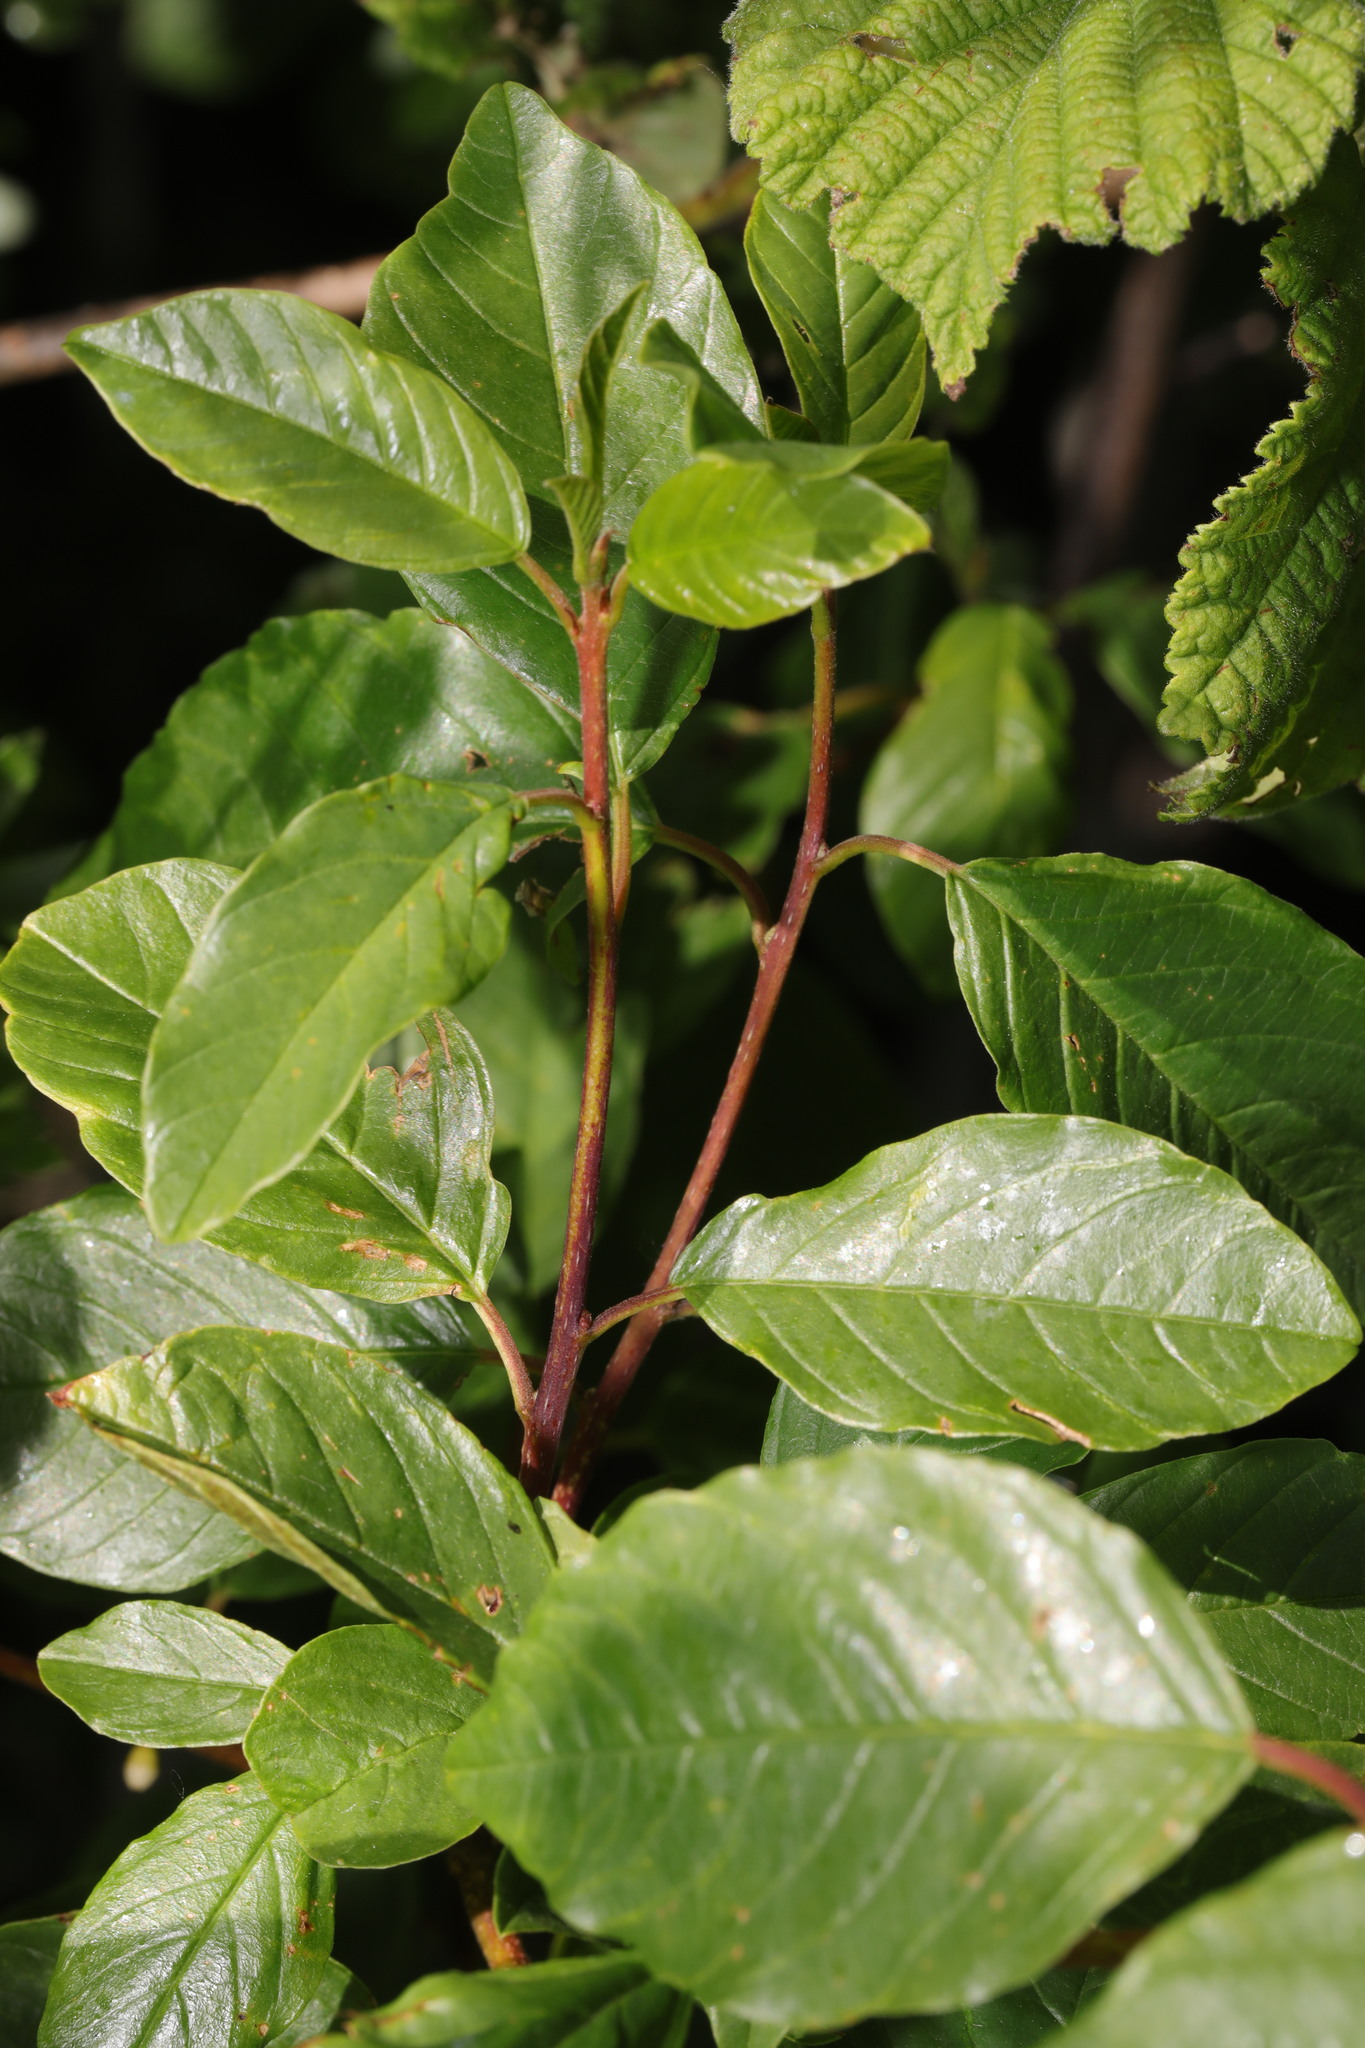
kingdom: Plantae
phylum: Tracheophyta
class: Magnoliopsida
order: Rosales
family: Rhamnaceae
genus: Frangula
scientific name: Frangula alnus
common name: Alder buckthorn
